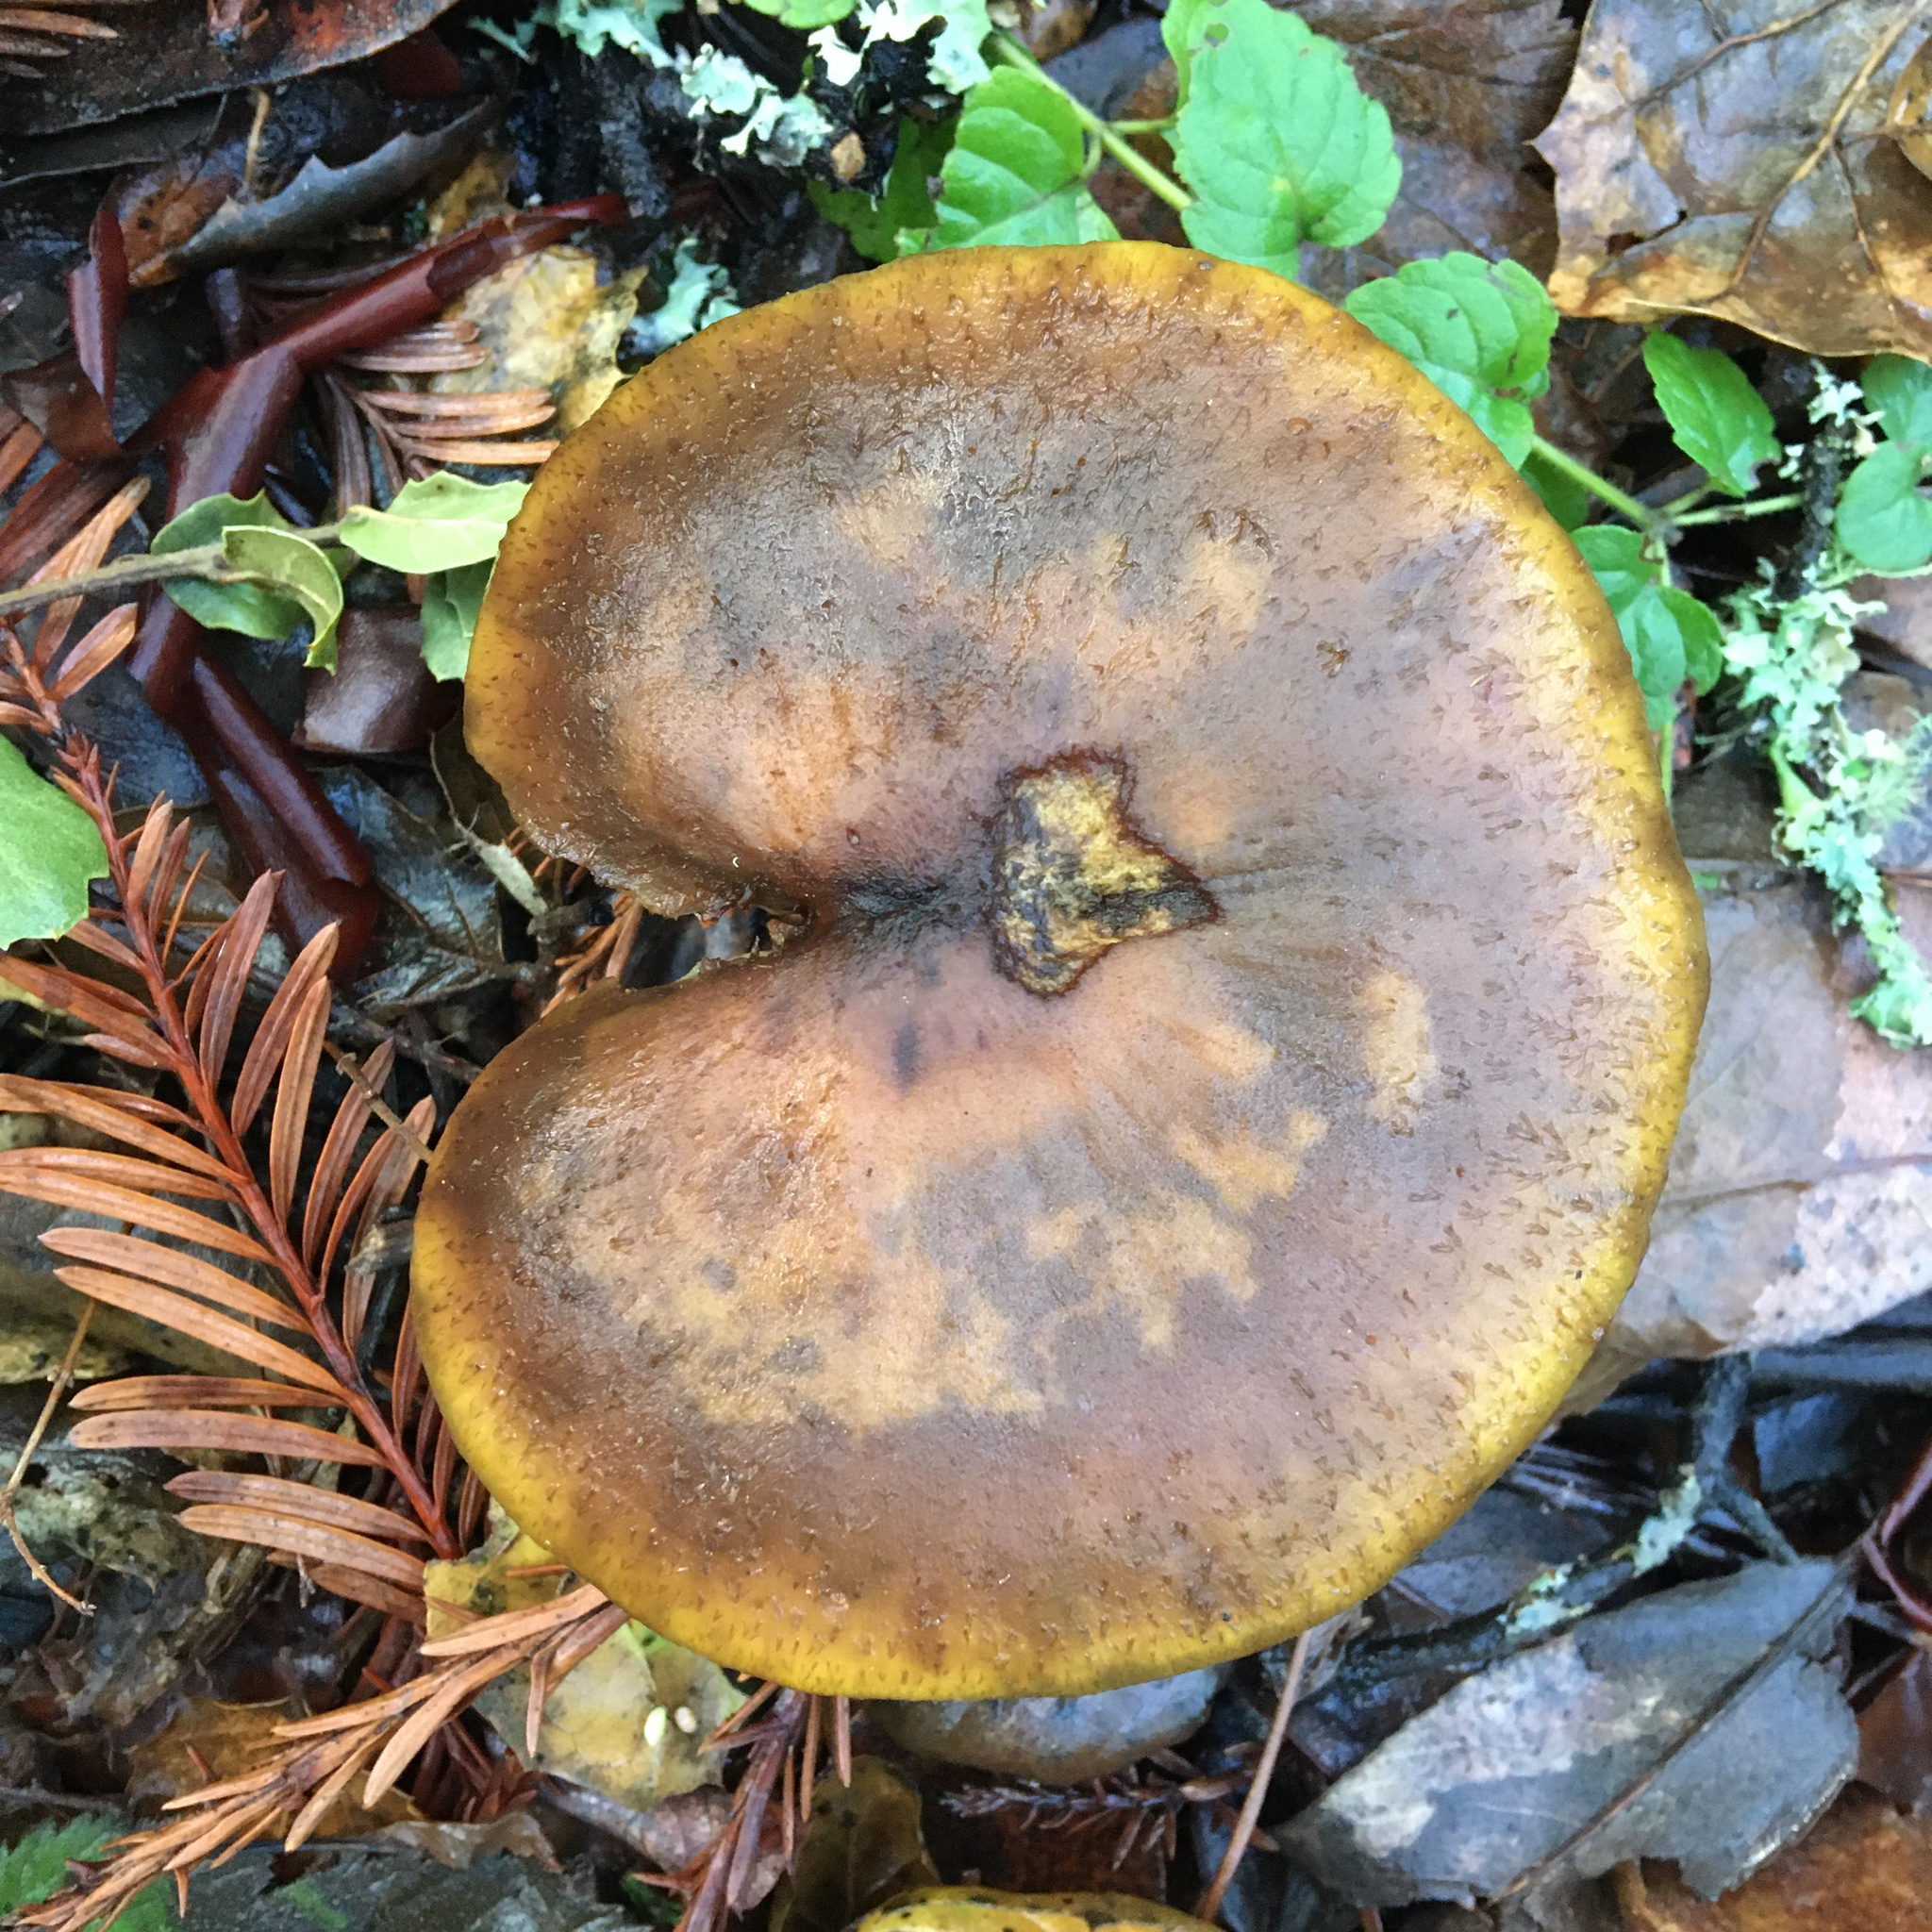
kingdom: Fungi
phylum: Basidiomycota
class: Agaricomycetes
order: Agaricales
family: Physalacriaceae
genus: Armillaria
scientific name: Armillaria sinapina
